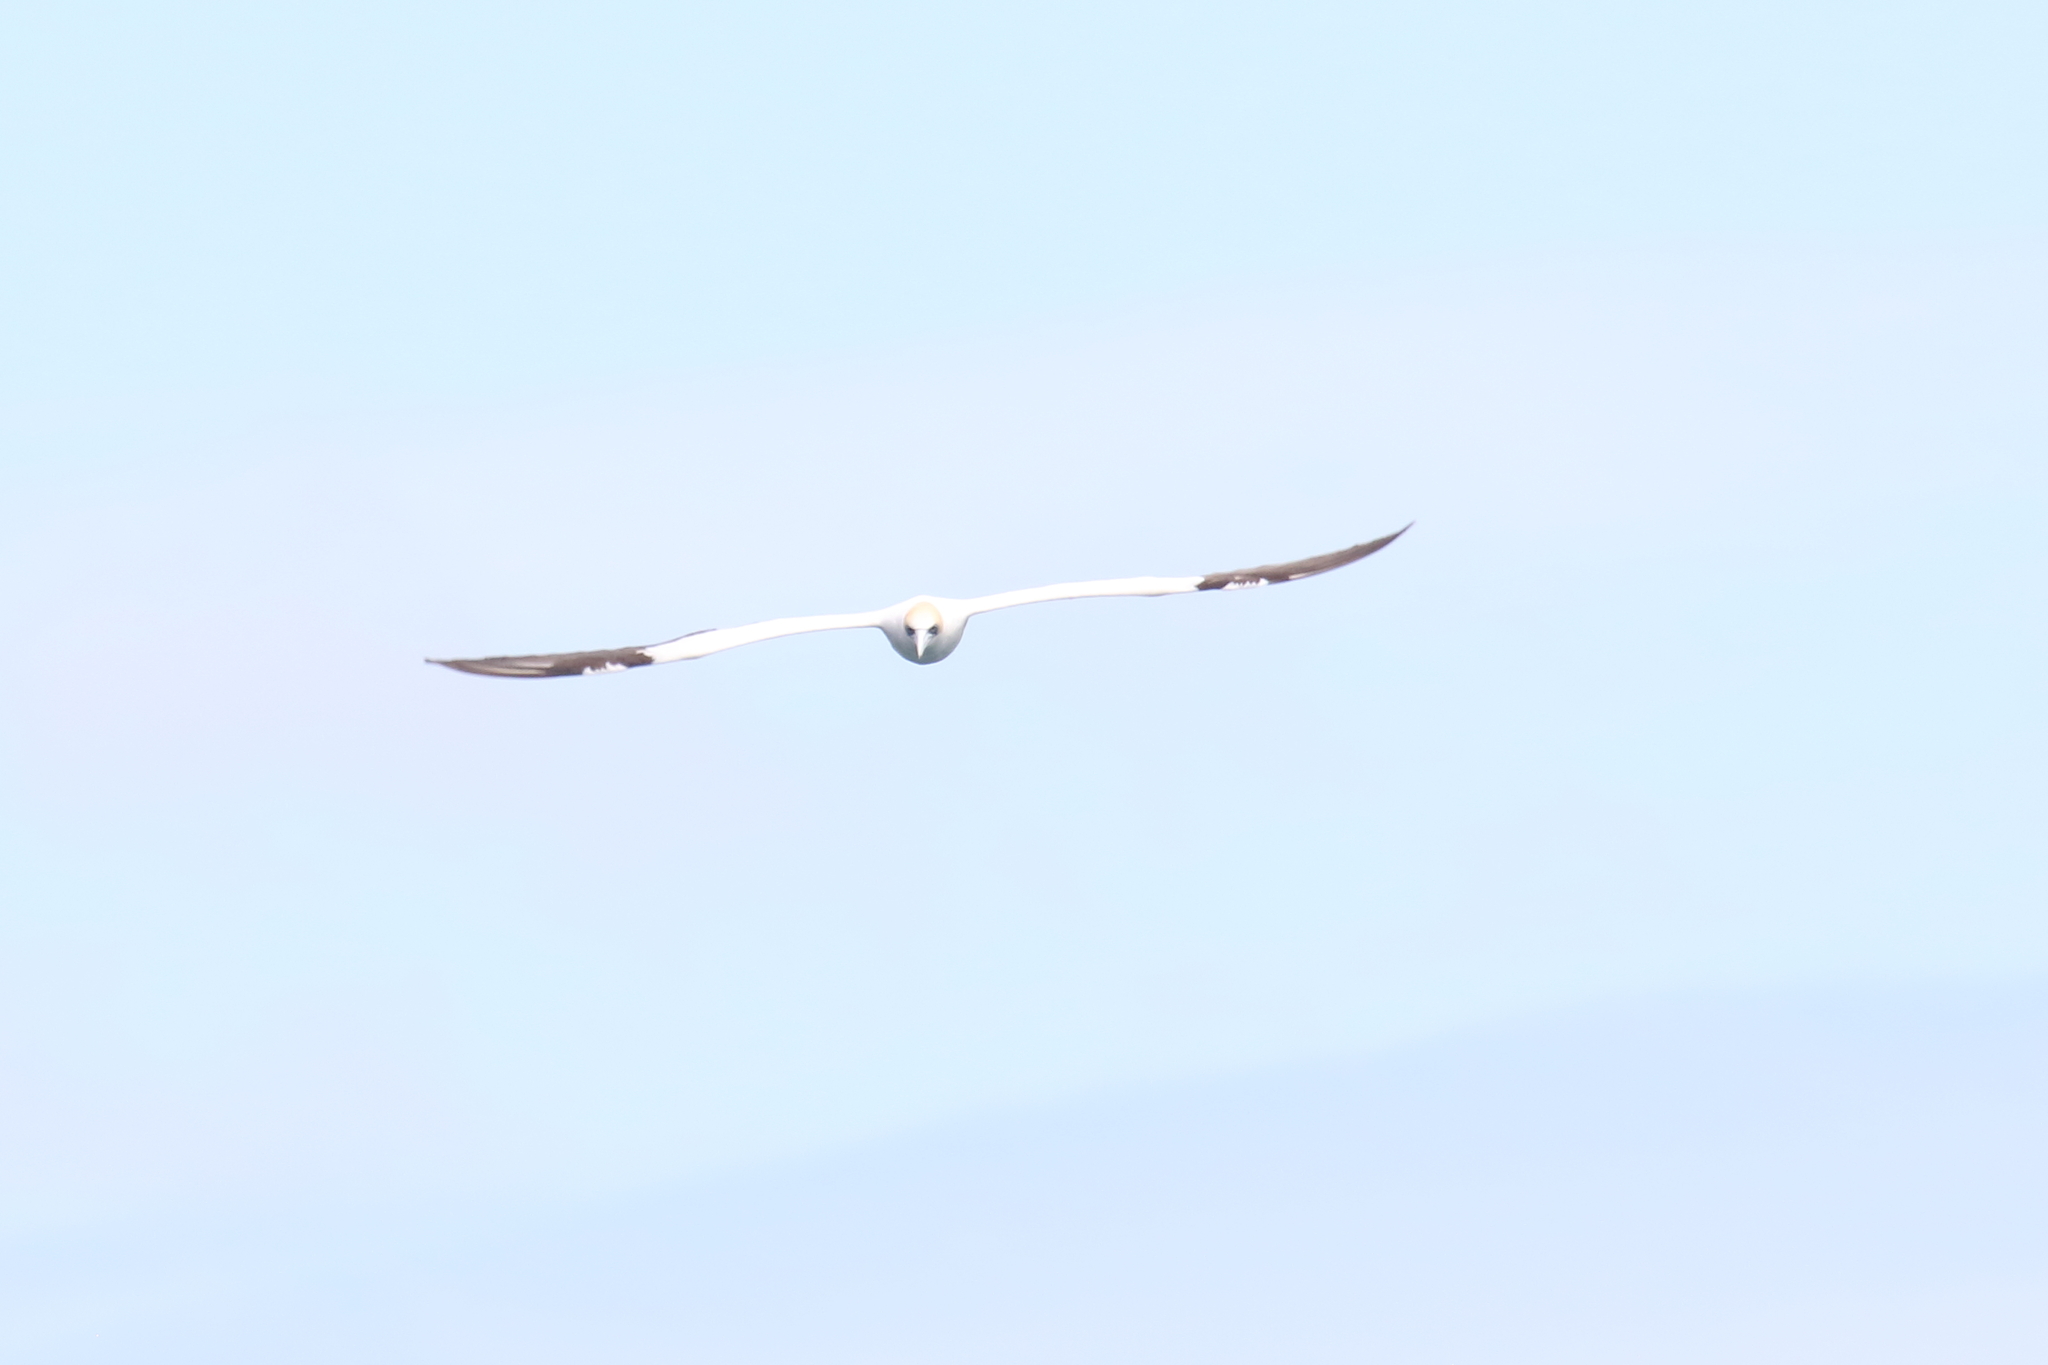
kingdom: Animalia
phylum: Chordata
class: Aves
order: Suliformes
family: Sulidae
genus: Morus
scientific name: Morus serrator
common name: Australasian gannet
